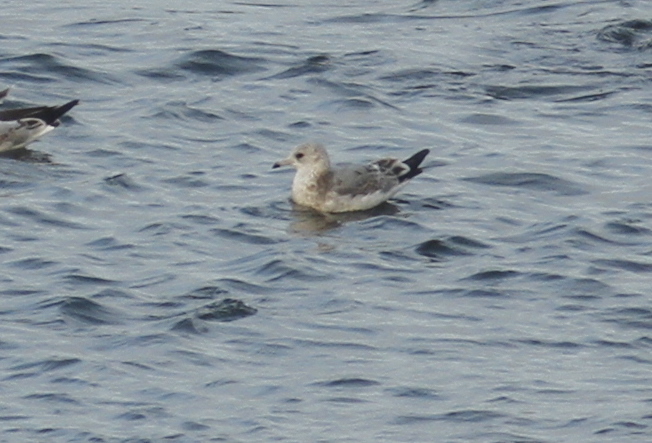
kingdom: Animalia
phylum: Chordata
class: Aves
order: Charadriiformes
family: Laridae
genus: Larus
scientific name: Larus canus
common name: Mew gull
